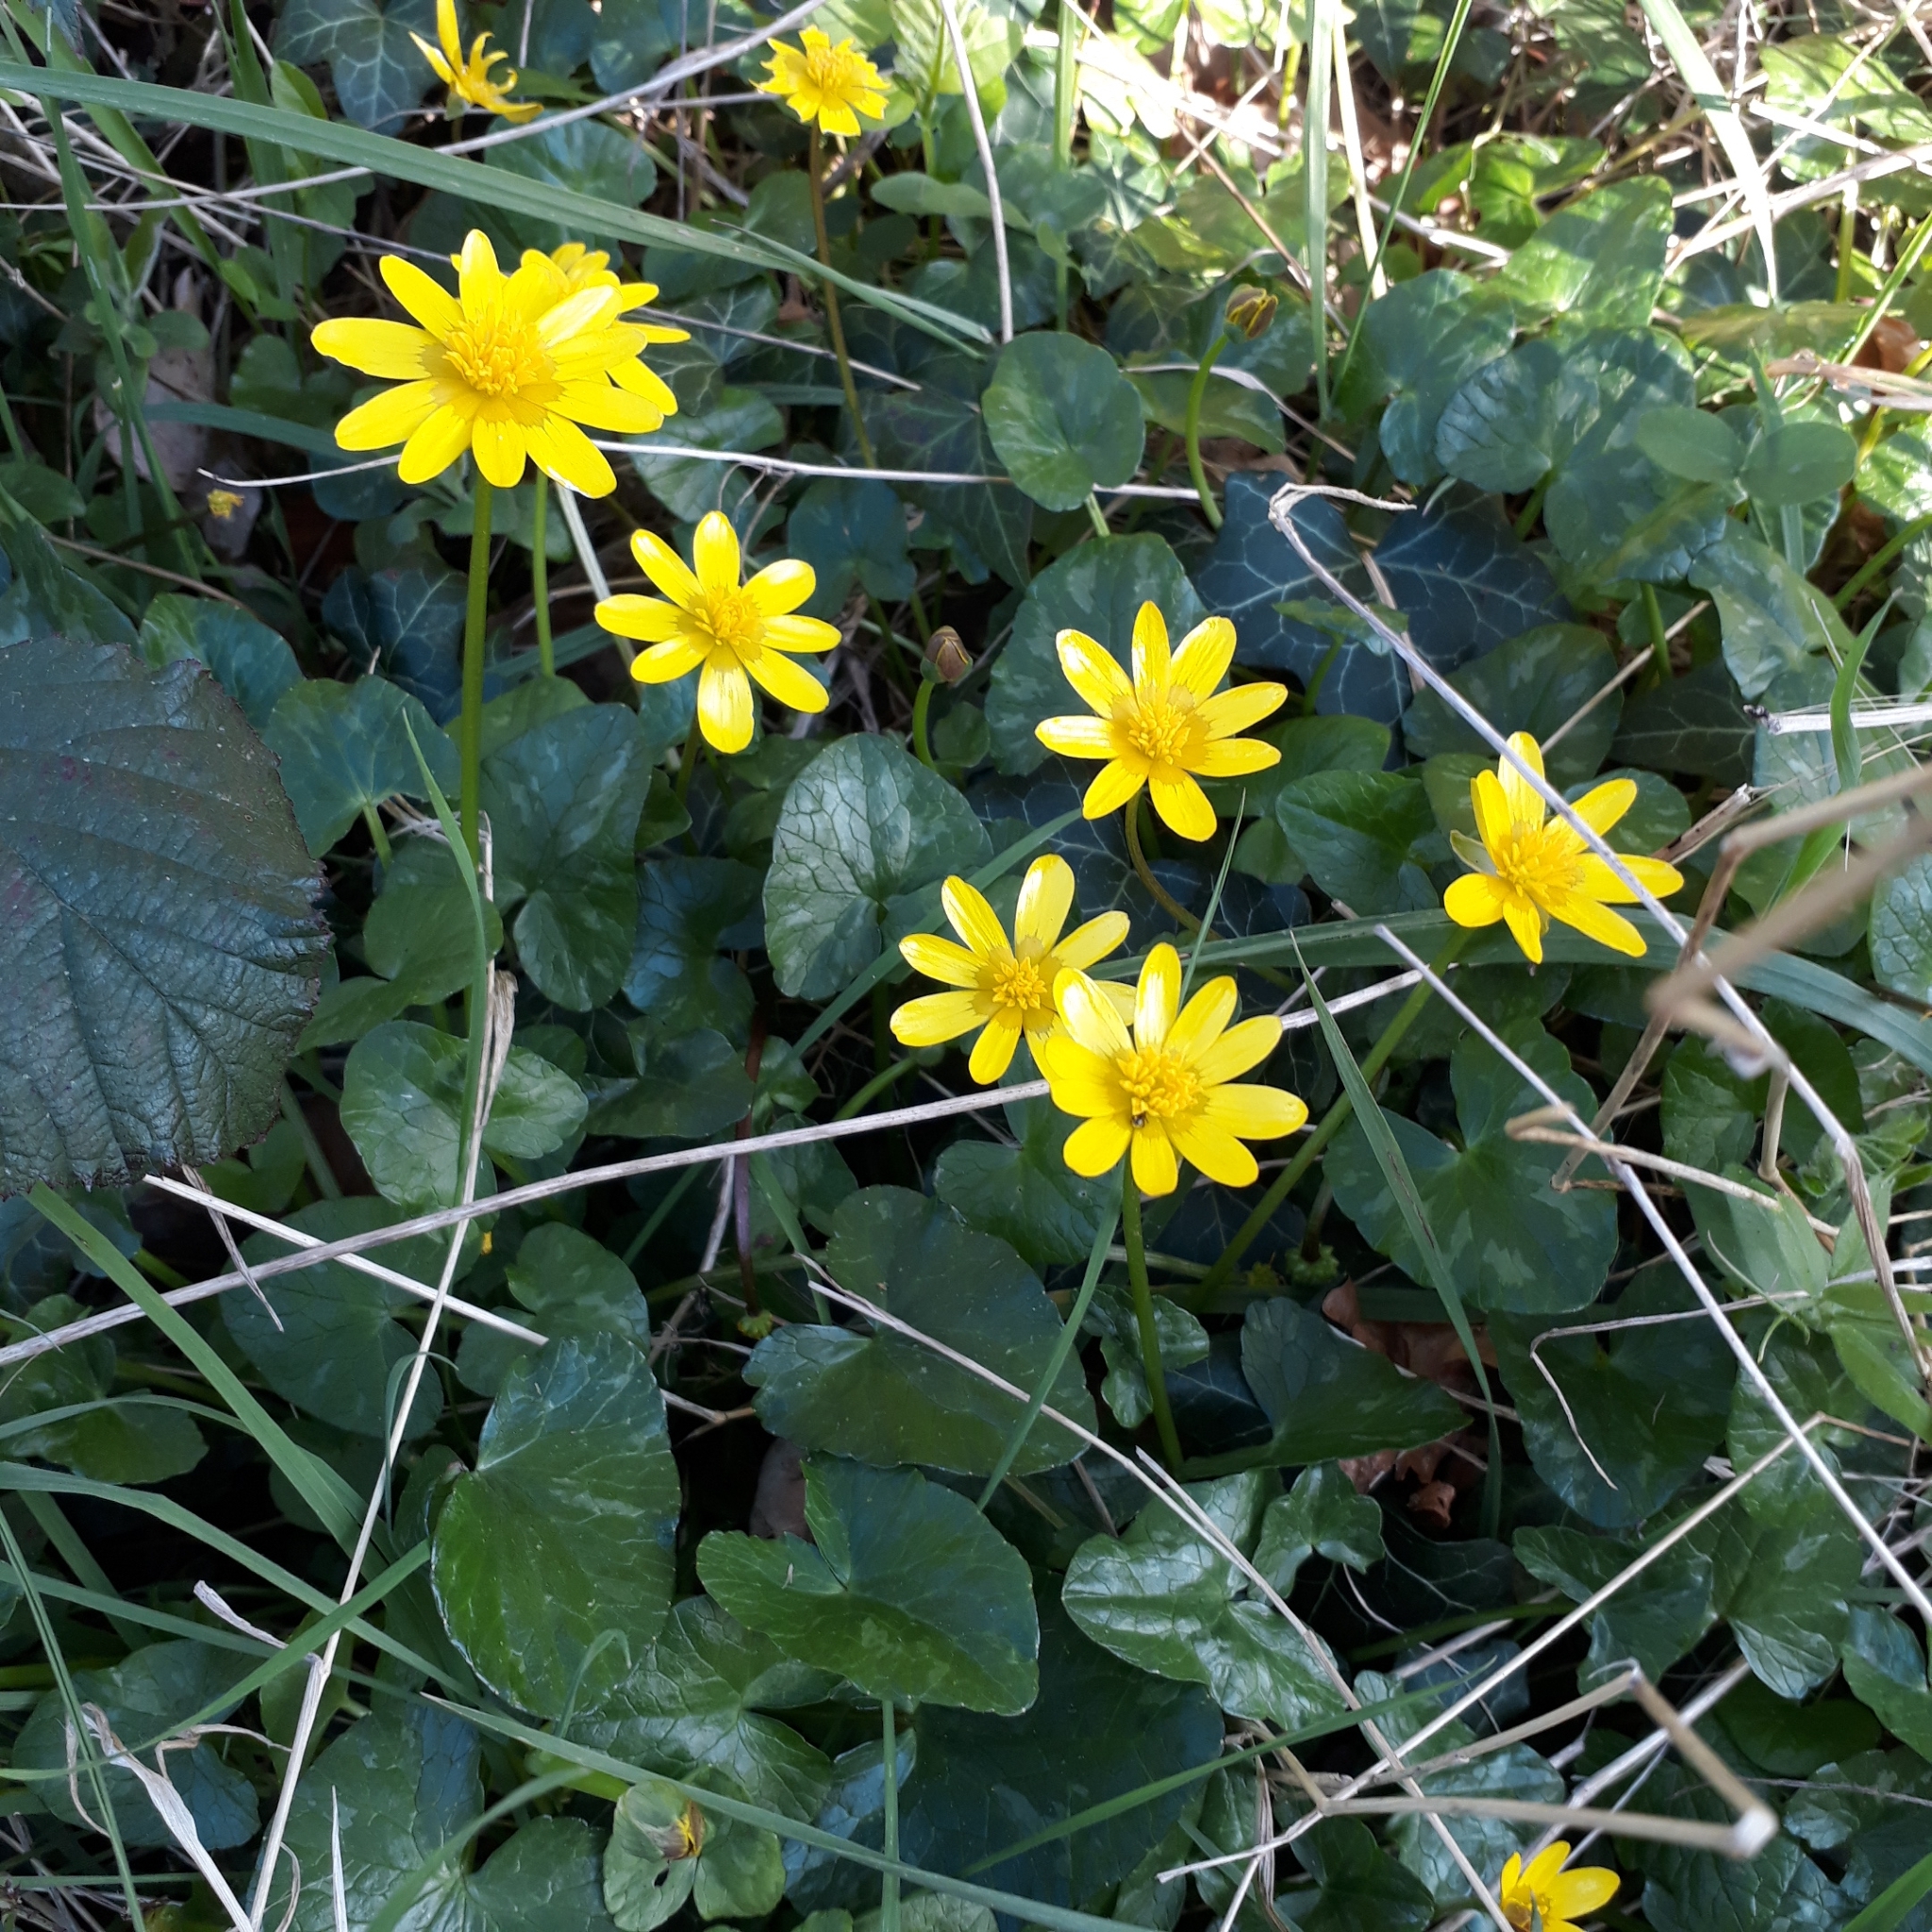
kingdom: Plantae
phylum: Tracheophyta
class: Magnoliopsida
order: Ranunculales
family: Ranunculaceae
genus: Ficaria
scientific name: Ficaria verna
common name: Lesser celandine
